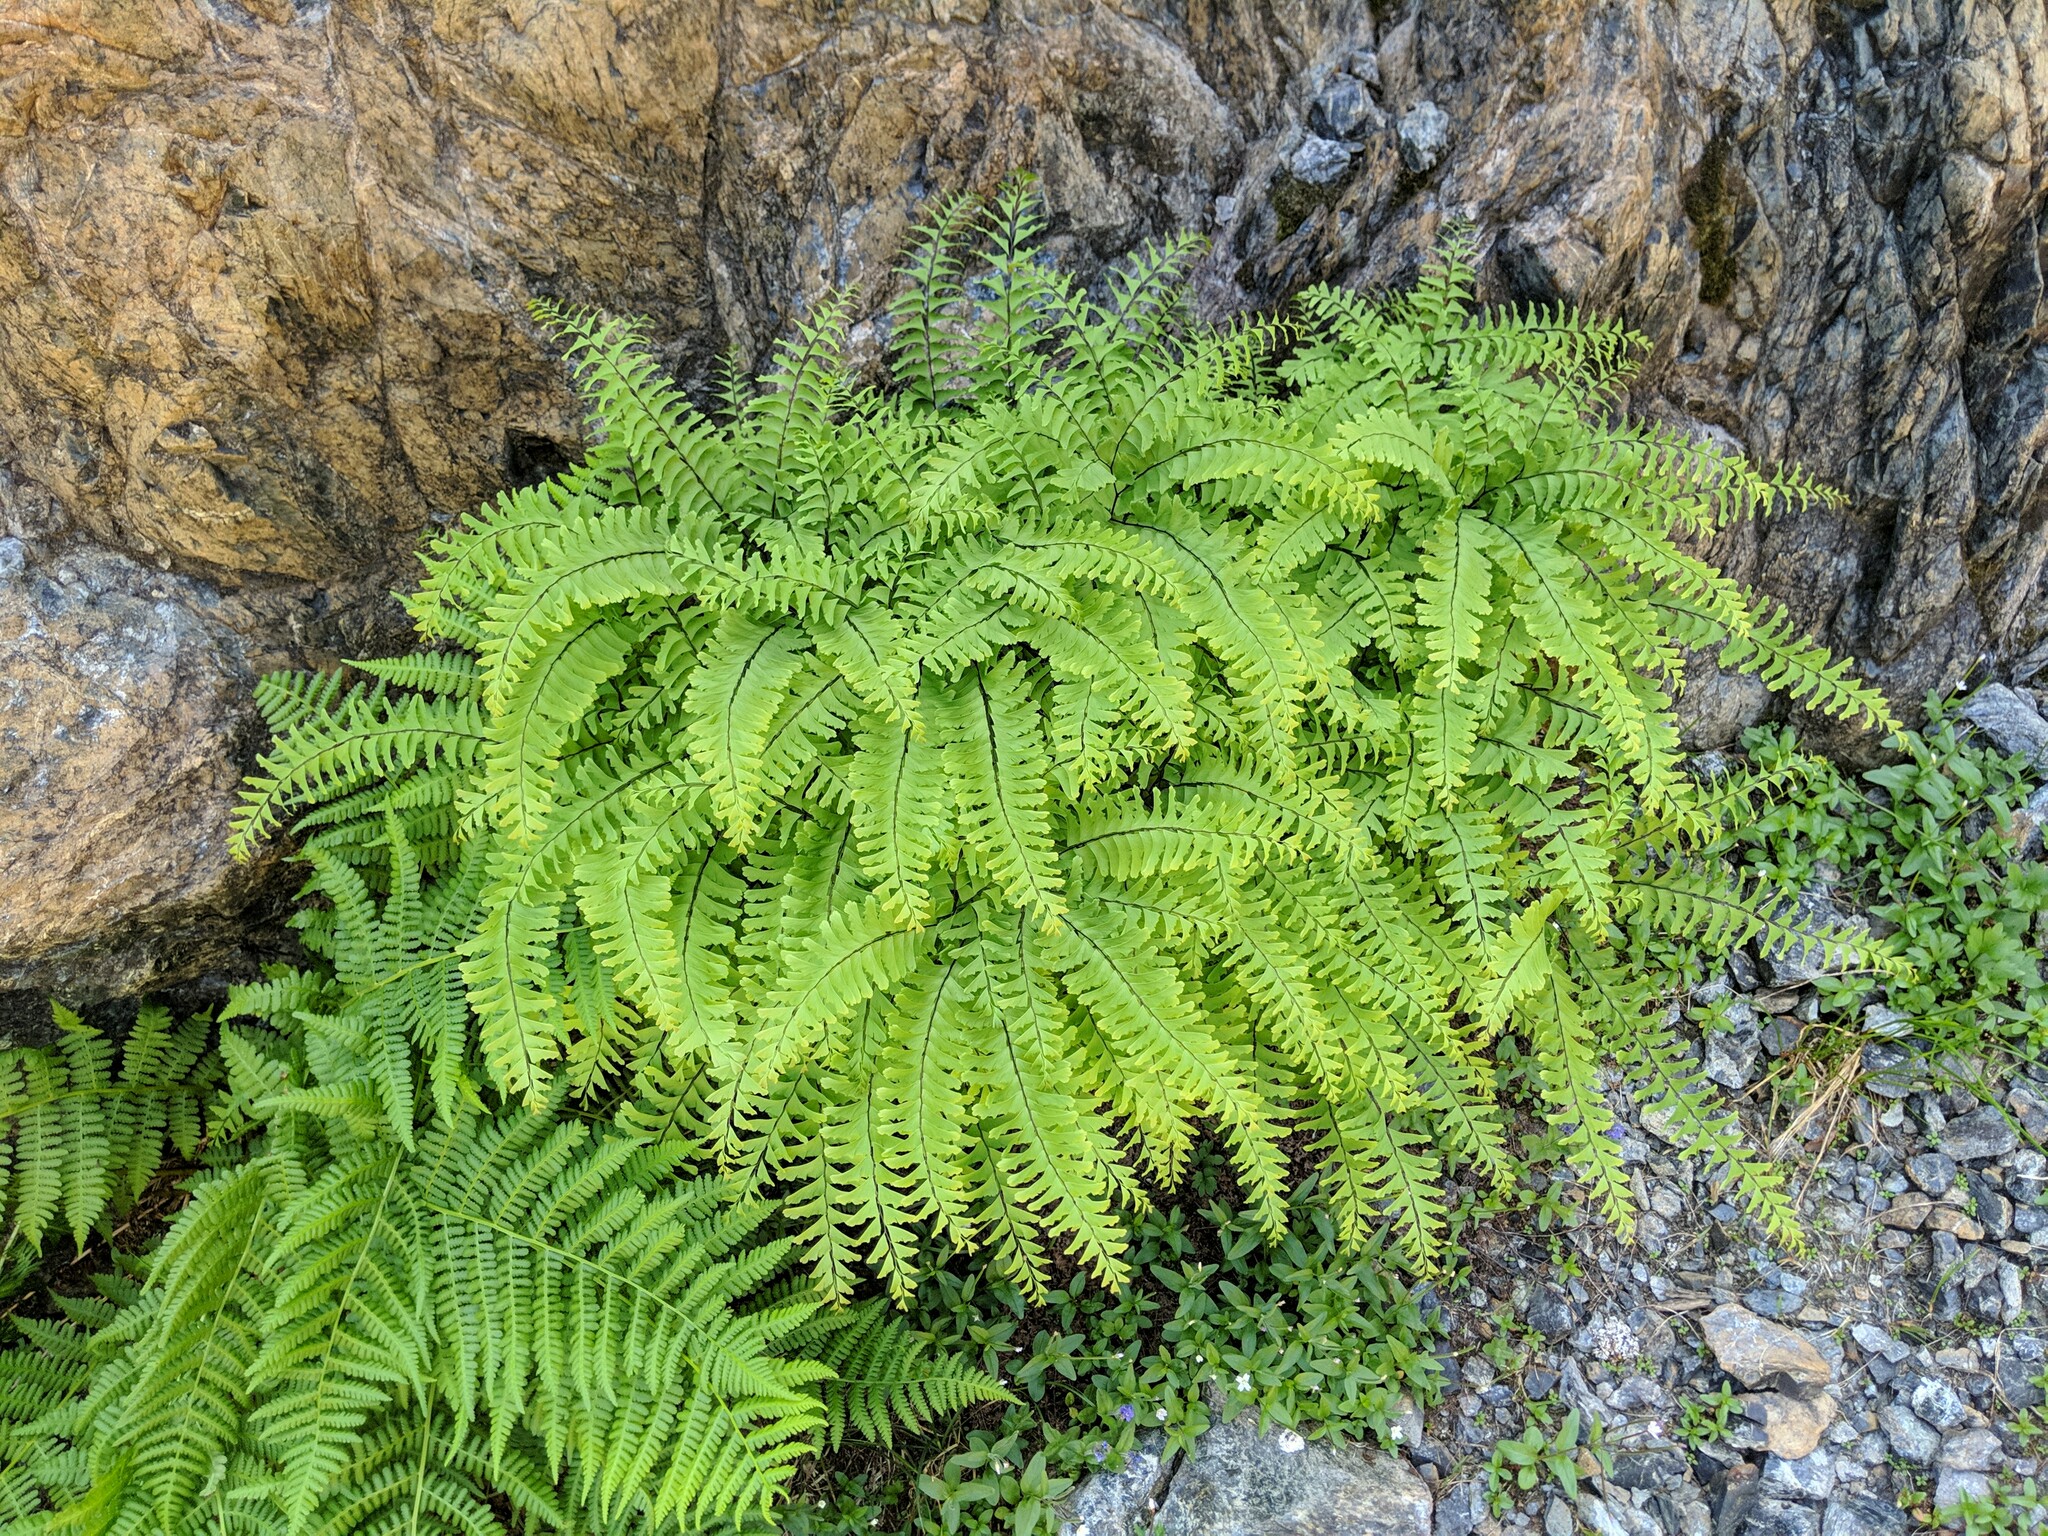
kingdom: Plantae
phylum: Tracheophyta
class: Polypodiopsida
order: Polypodiales
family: Pteridaceae
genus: Adiantum
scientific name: Adiantum aleuticum
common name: Aleutian maidenhair fern
